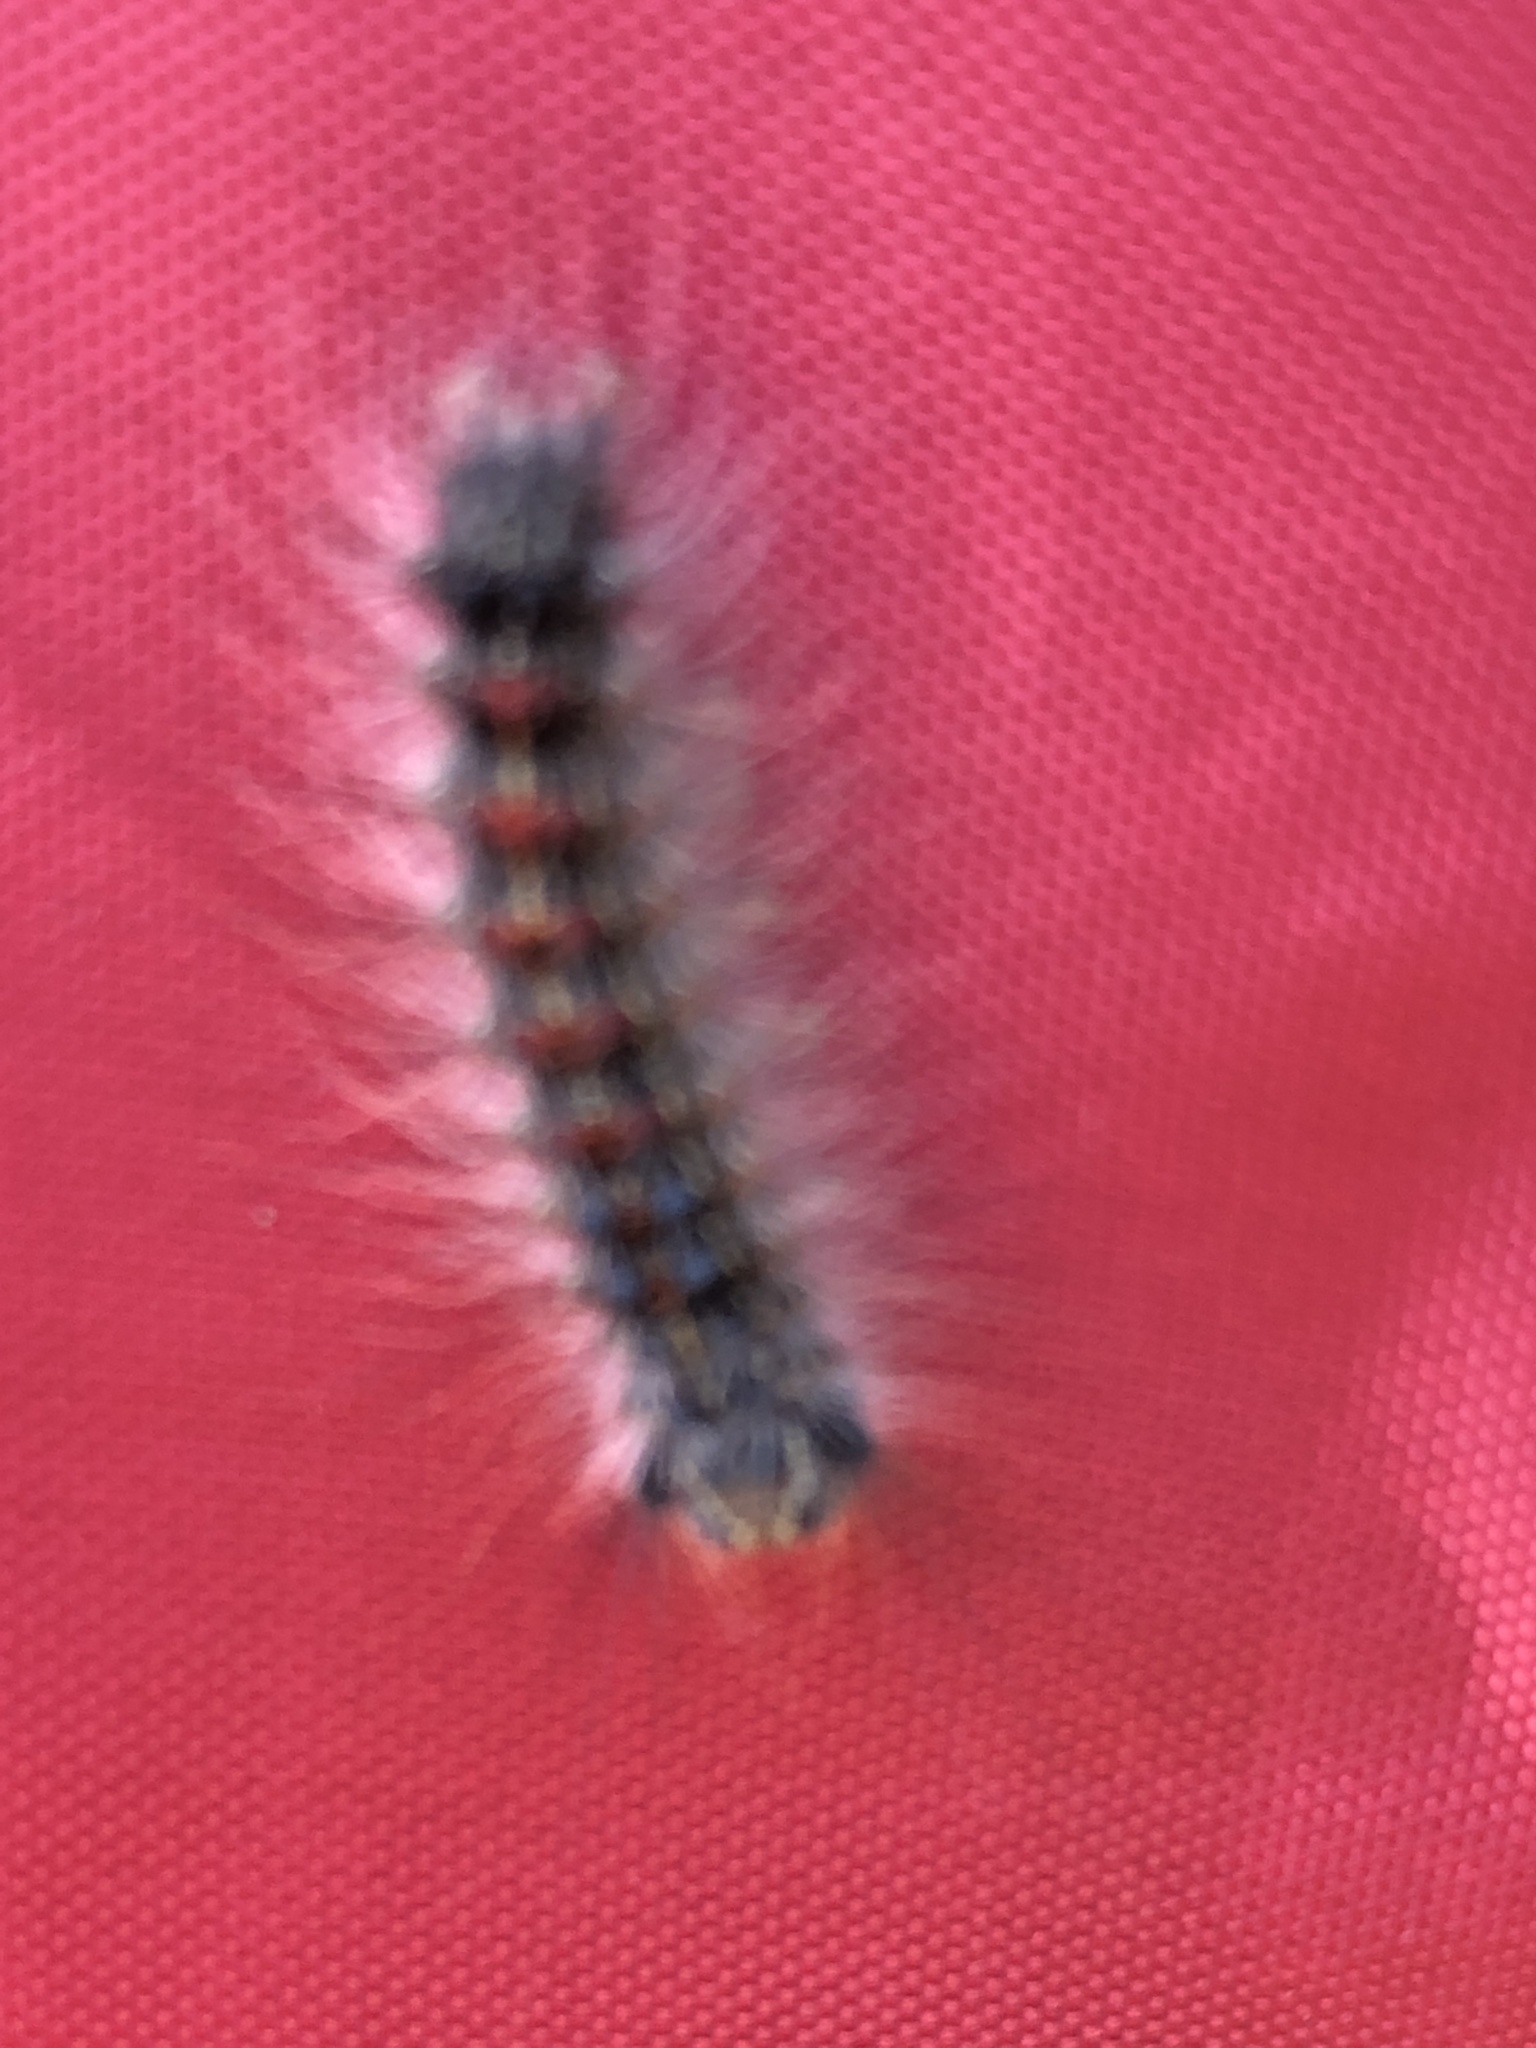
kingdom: Animalia
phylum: Arthropoda
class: Insecta
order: Lepidoptera
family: Erebidae
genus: Lymantria
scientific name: Lymantria dispar
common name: Gypsy moth
